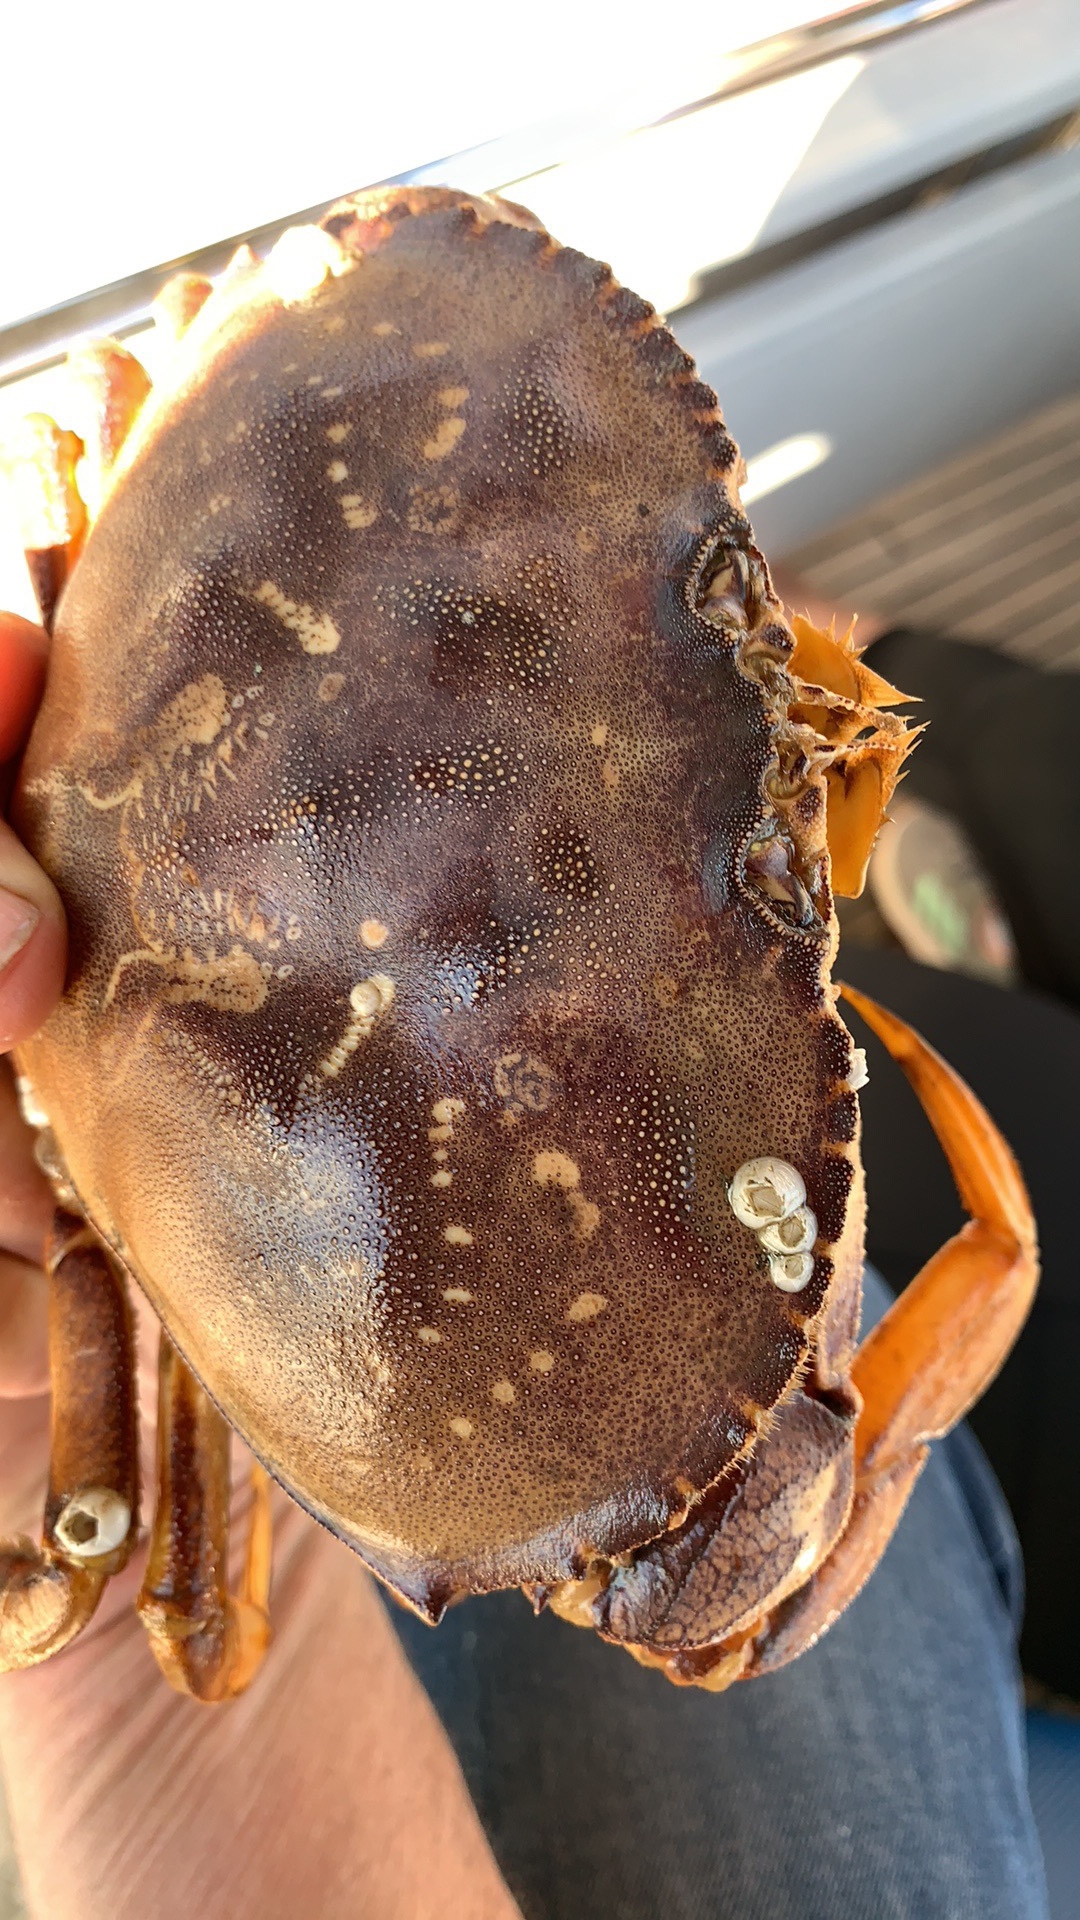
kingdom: Animalia
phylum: Arthropoda
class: Malacostraca
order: Decapoda
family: Cancridae
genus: Metacarcinus
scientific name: Metacarcinus magister
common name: Californian crab
